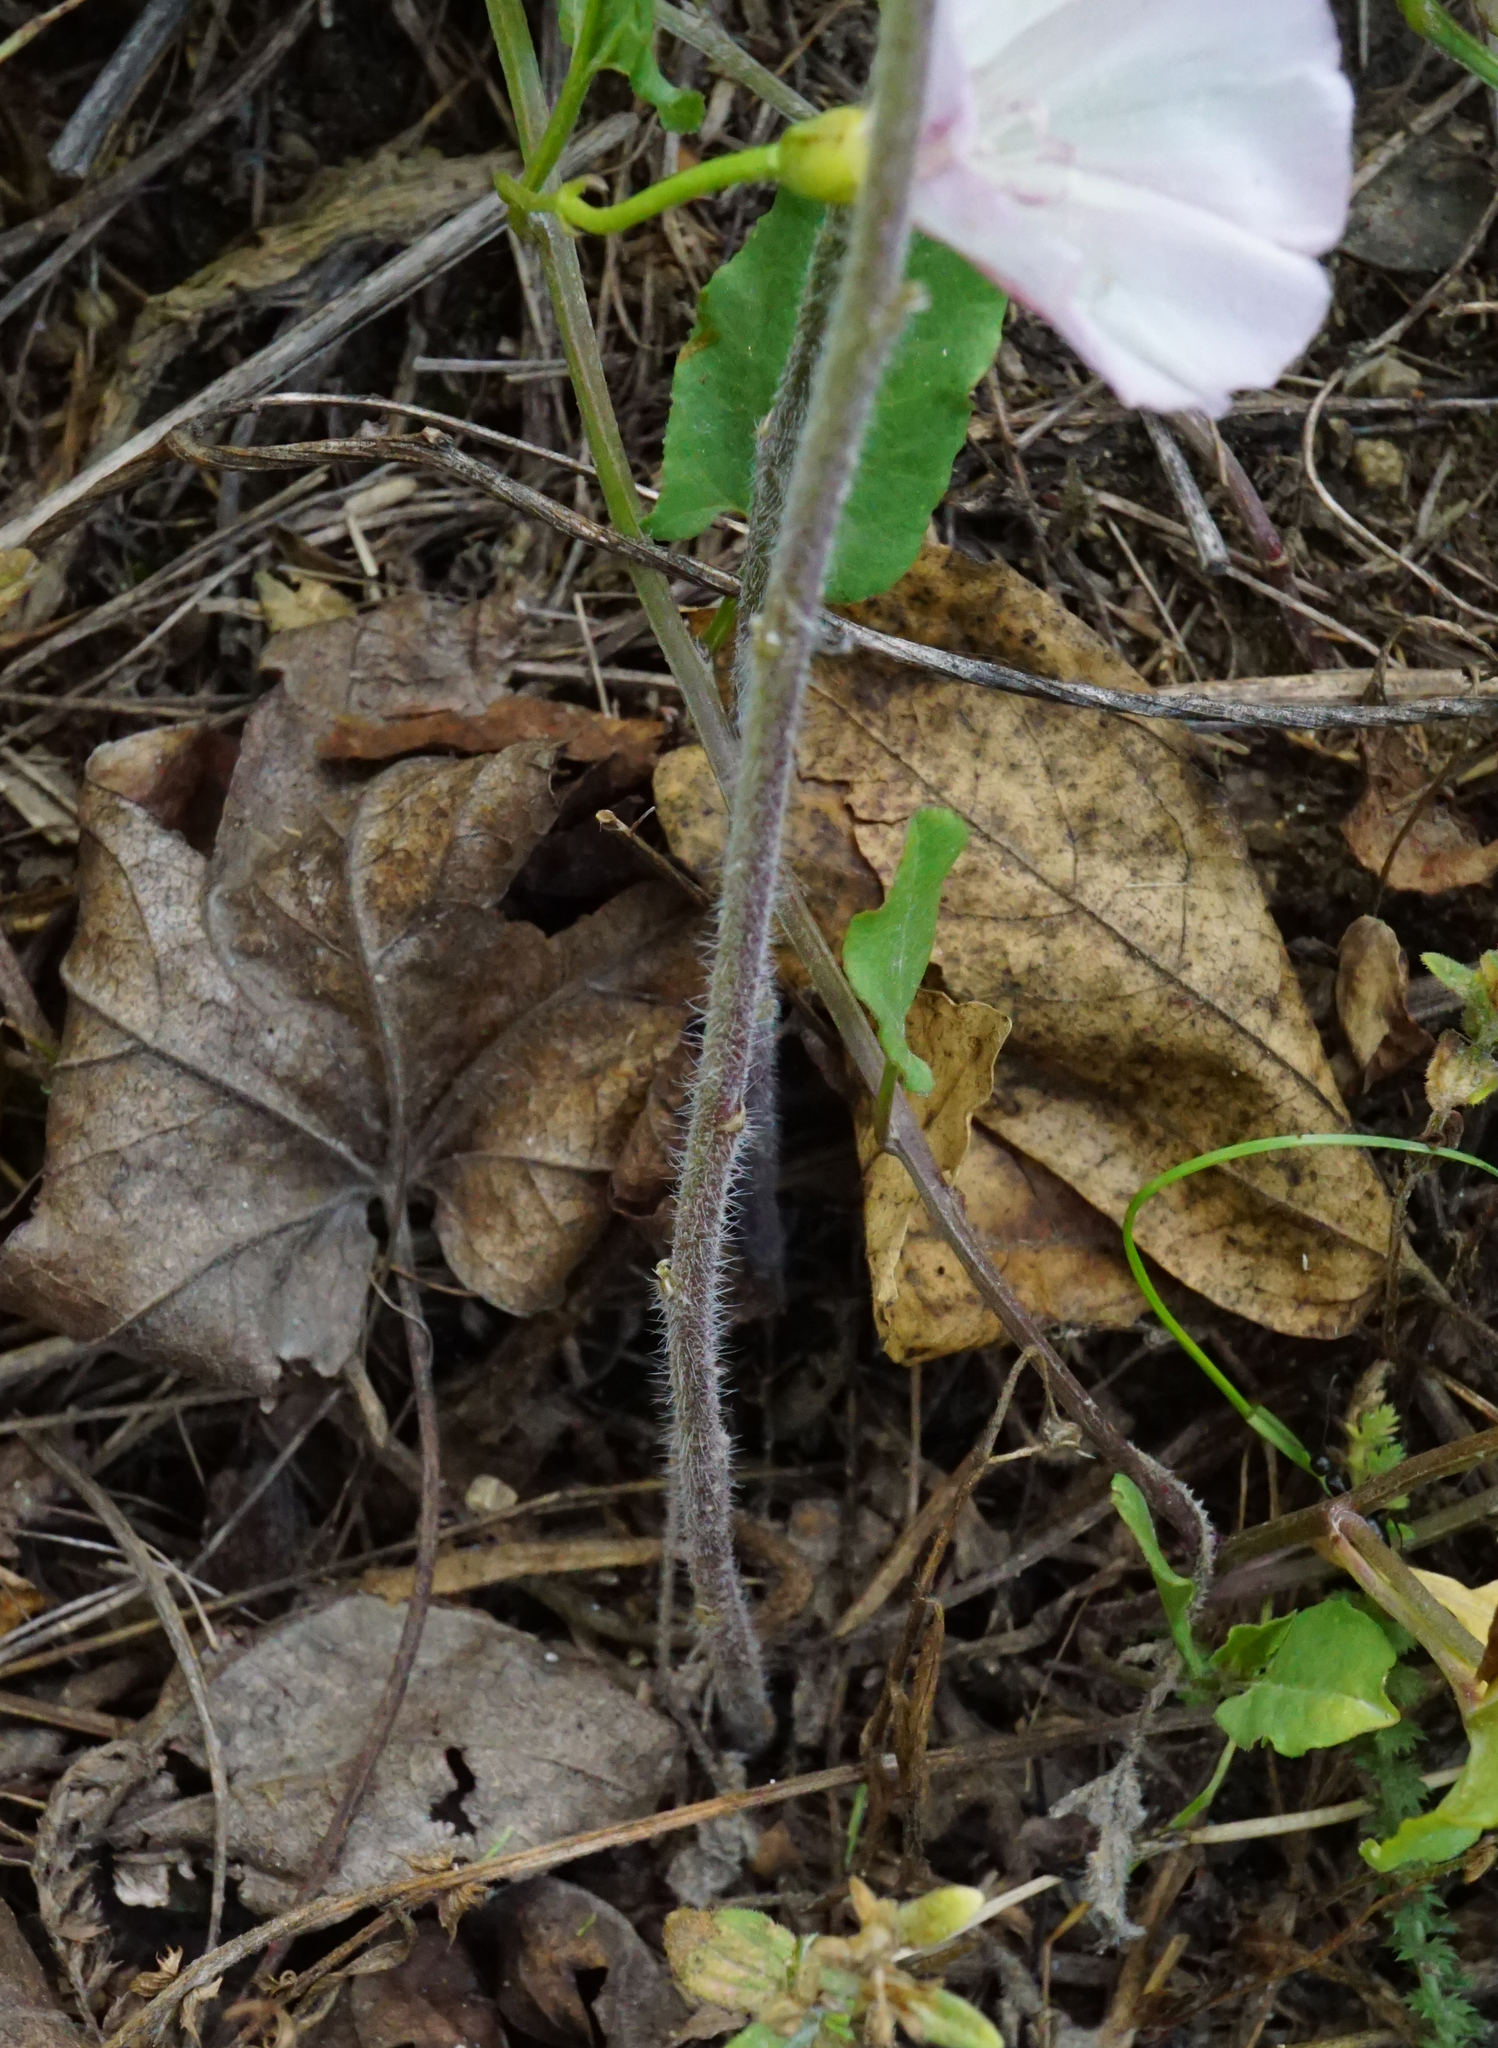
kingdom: Plantae
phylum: Tracheophyta
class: Magnoliopsida
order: Brassicales
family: Brassicaceae
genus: Camelina
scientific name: Camelina microcarpa
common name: Lesser gold-of-pleasure
